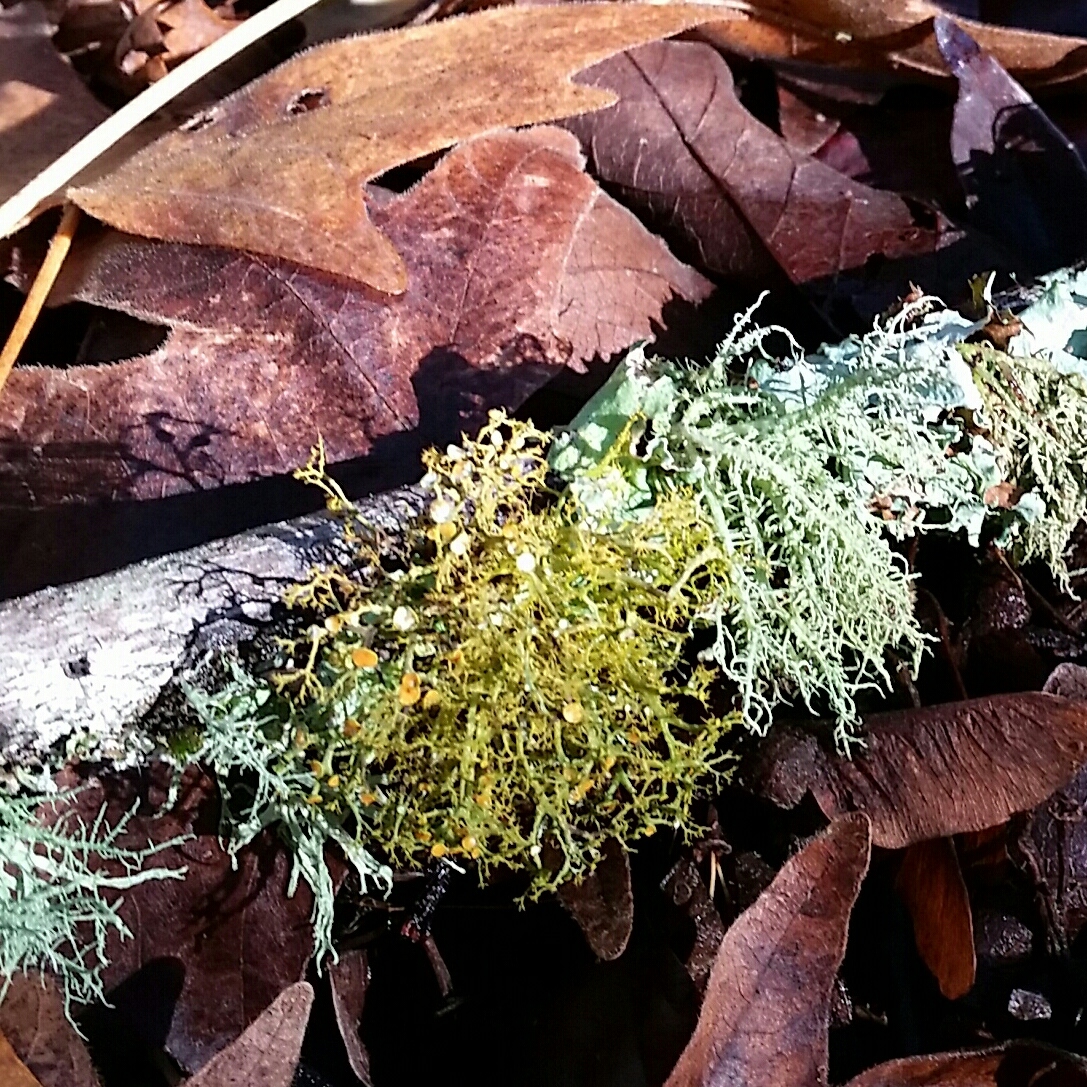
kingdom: Fungi
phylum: Ascomycota
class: Lecanoromycetes
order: Teloschistales
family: Teloschistaceae
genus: Teloschistes
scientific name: Teloschistes flavicans
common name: Golden hair-lichen
